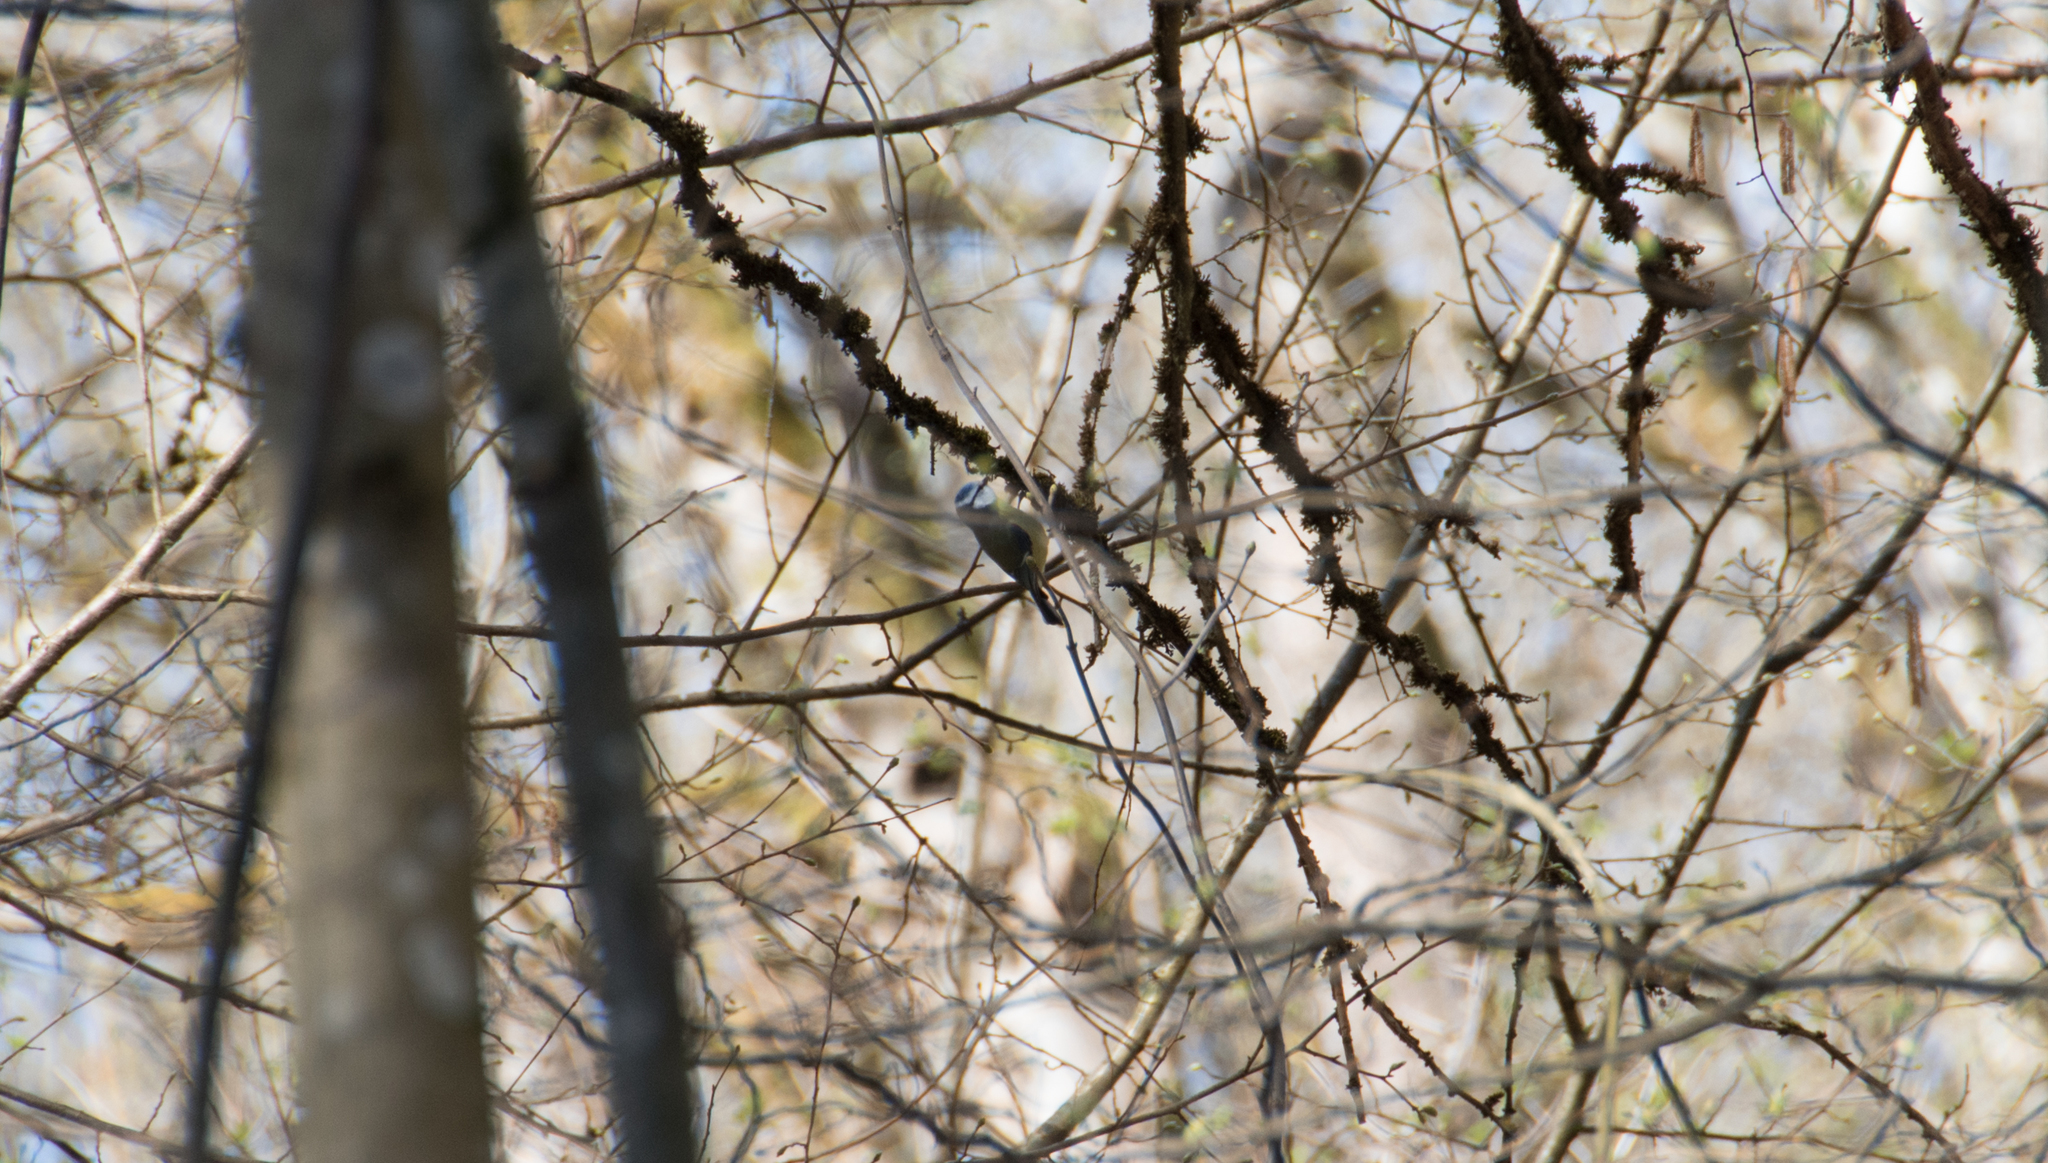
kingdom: Animalia
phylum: Chordata
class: Aves
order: Passeriformes
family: Paridae
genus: Cyanistes
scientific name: Cyanistes caeruleus
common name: Eurasian blue tit
